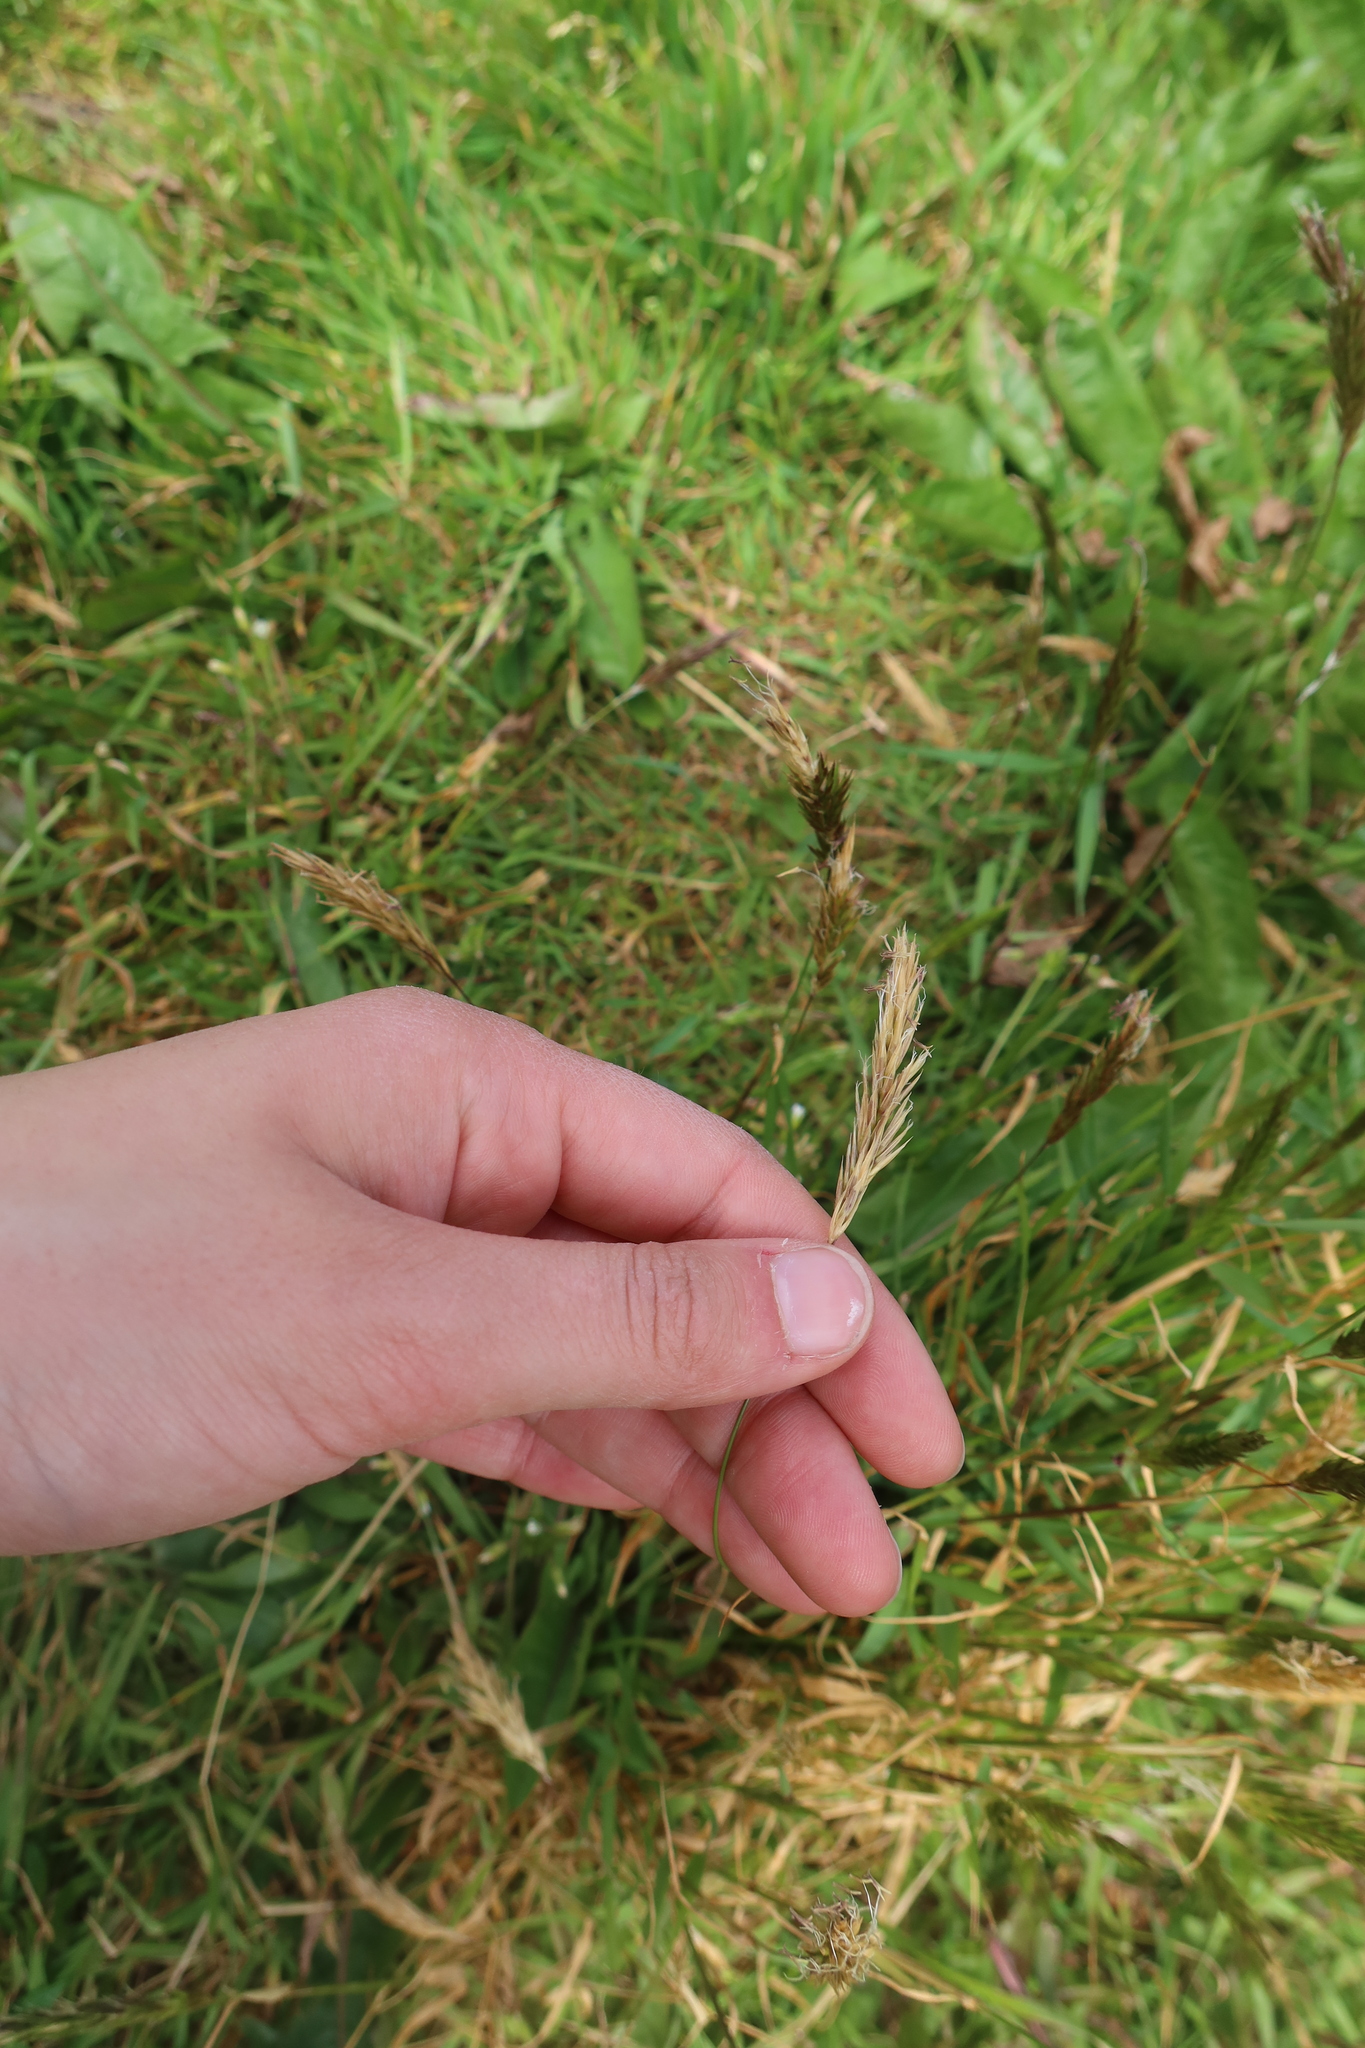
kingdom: Plantae
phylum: Tracheophyta
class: Liliopsida
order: Poales
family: Poaceae
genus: Anthoxanthum
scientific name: Anthoxanthum odoratum
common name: Sweet vernalgrass
